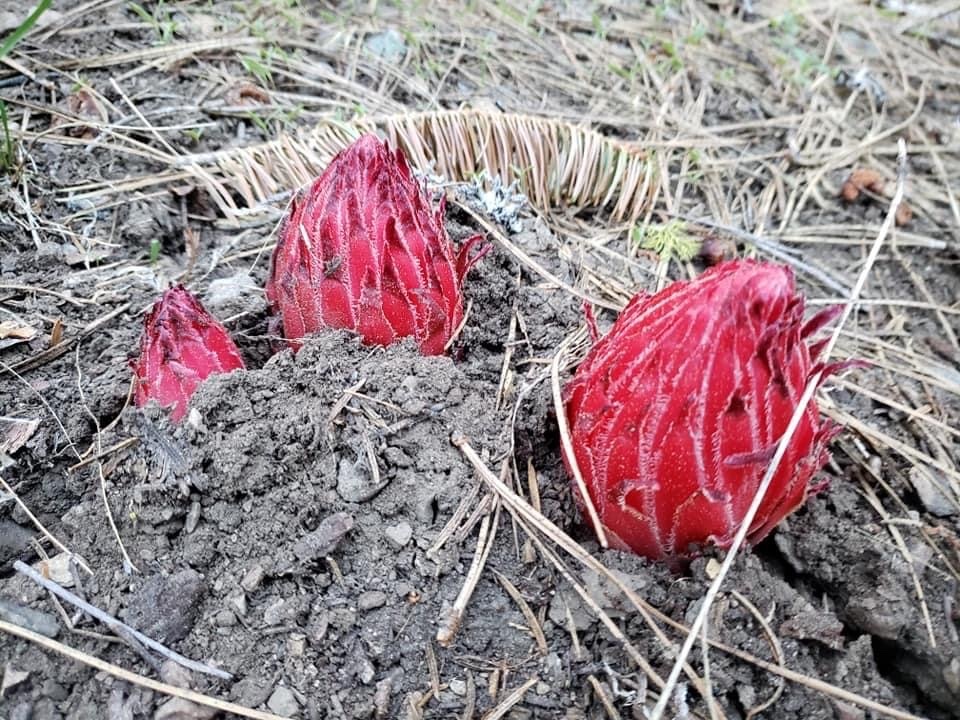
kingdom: Plantae
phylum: Tracheophyta
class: Magnoliopsida
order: Ericales
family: Ericaceae
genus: Sarcodes
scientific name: Sarcodes sanguinea
